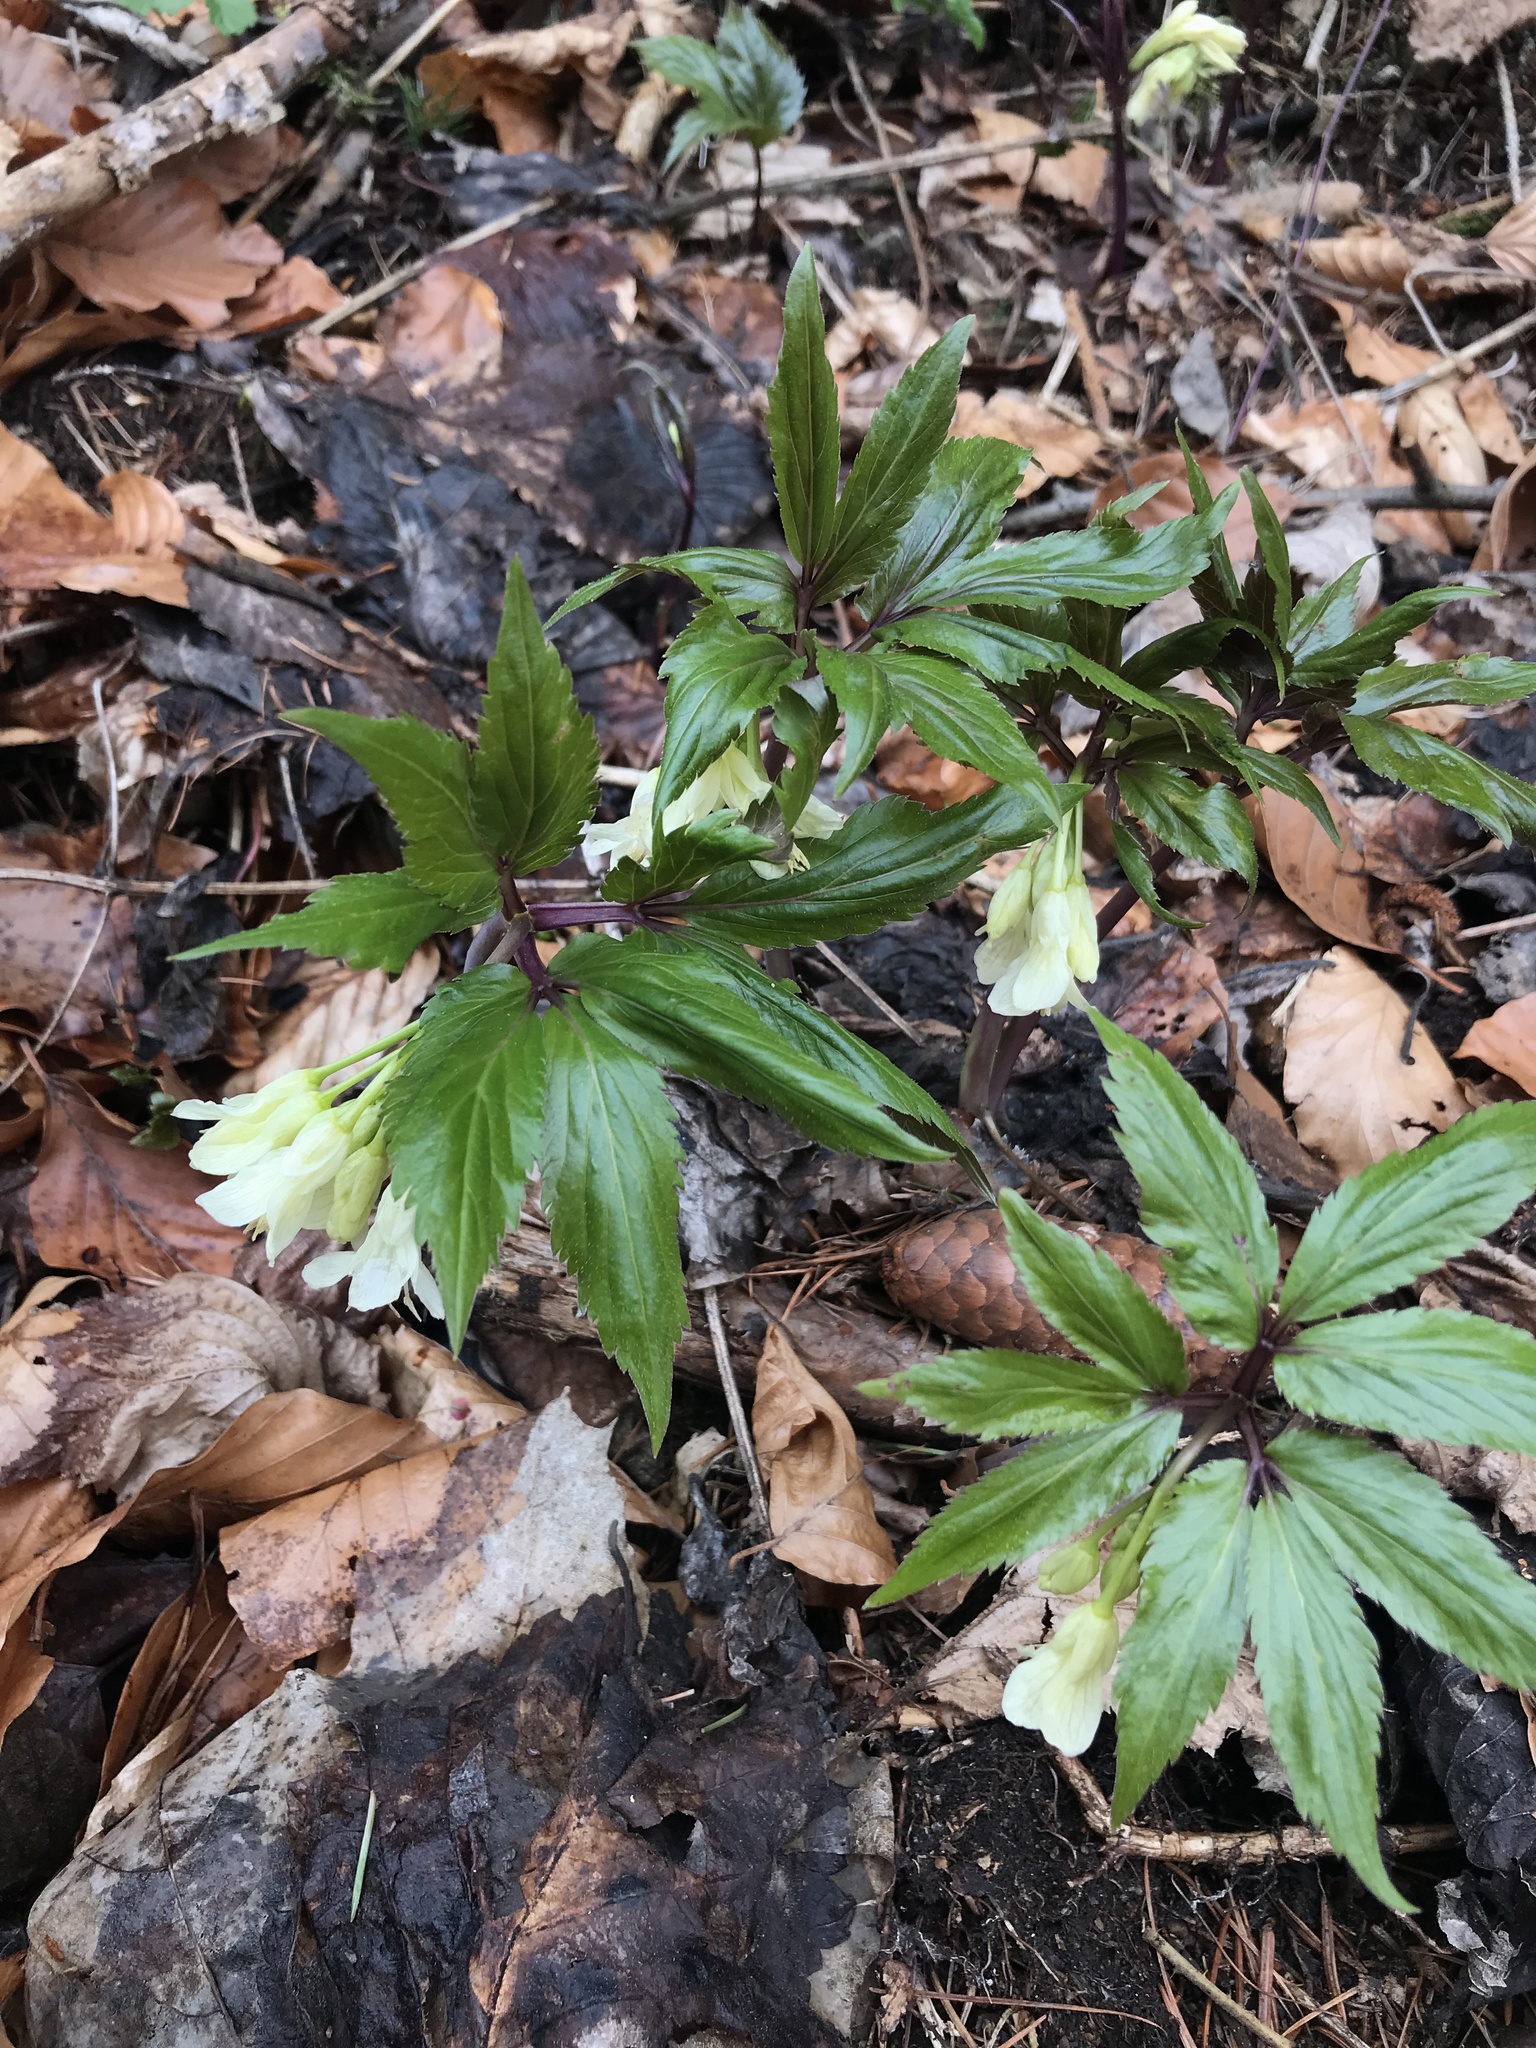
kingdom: Plantae
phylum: Tracheophyta
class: Magnoliopsida
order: Brassicales
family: Brassicaceae
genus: Cardamine
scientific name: Cardamine enneaphyllos
